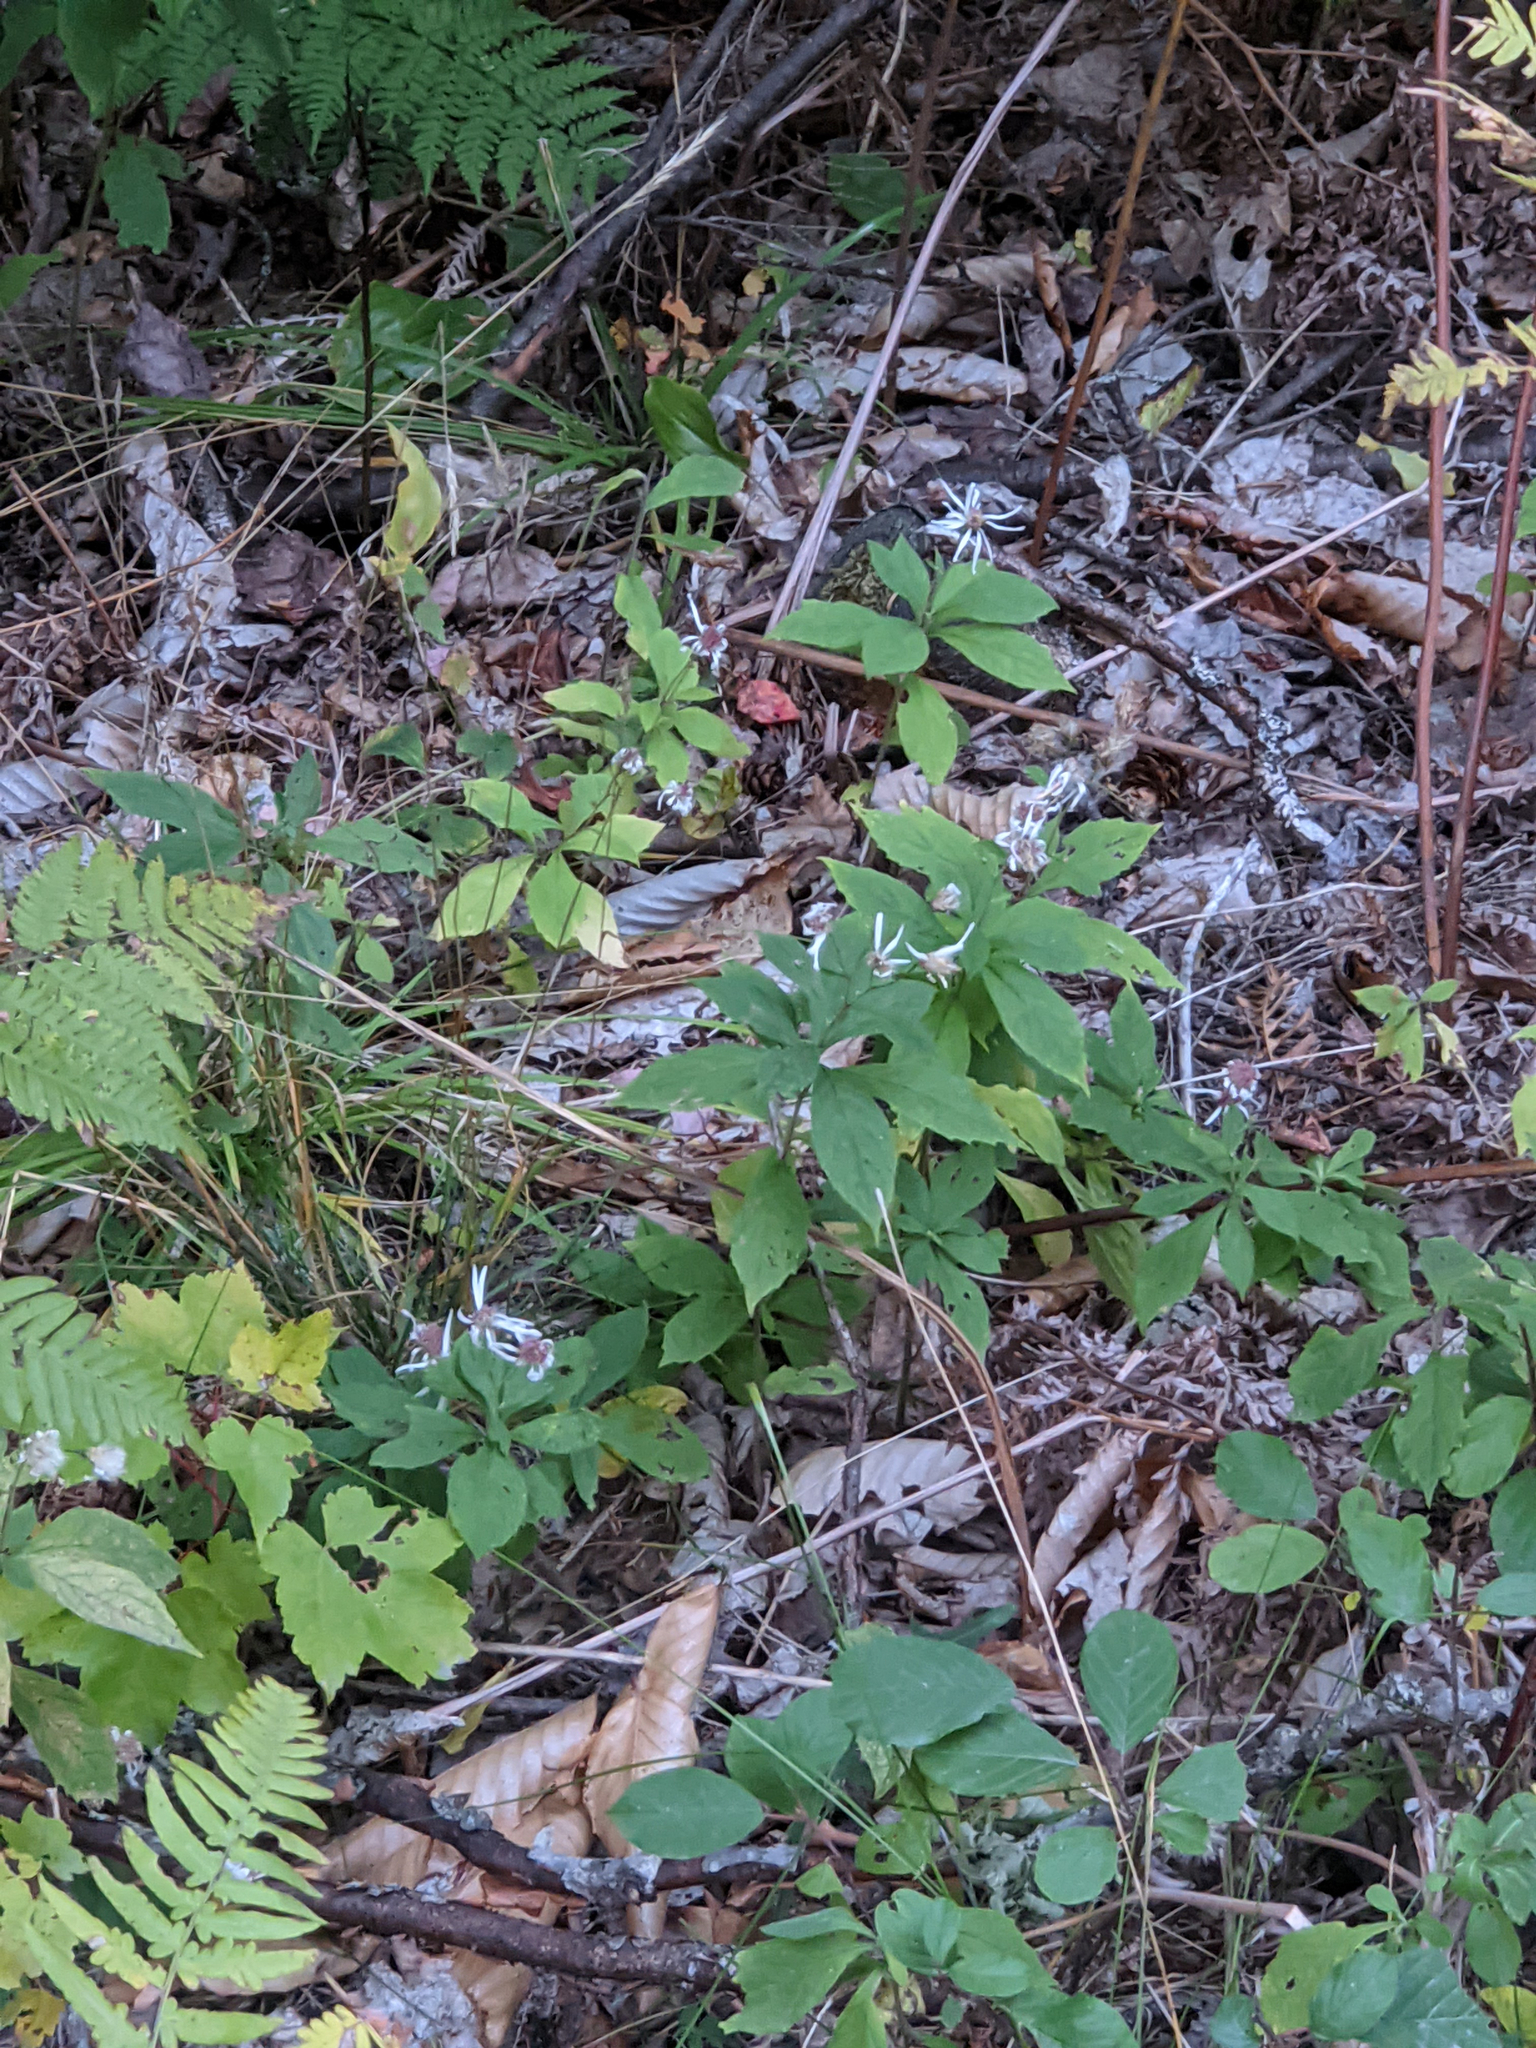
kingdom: Plantae
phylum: Tracheophyta
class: Magnoliopsida
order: Asterales
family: Asteraceae
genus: Oclemena
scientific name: Oclemena acuminata
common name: Mountain aster
